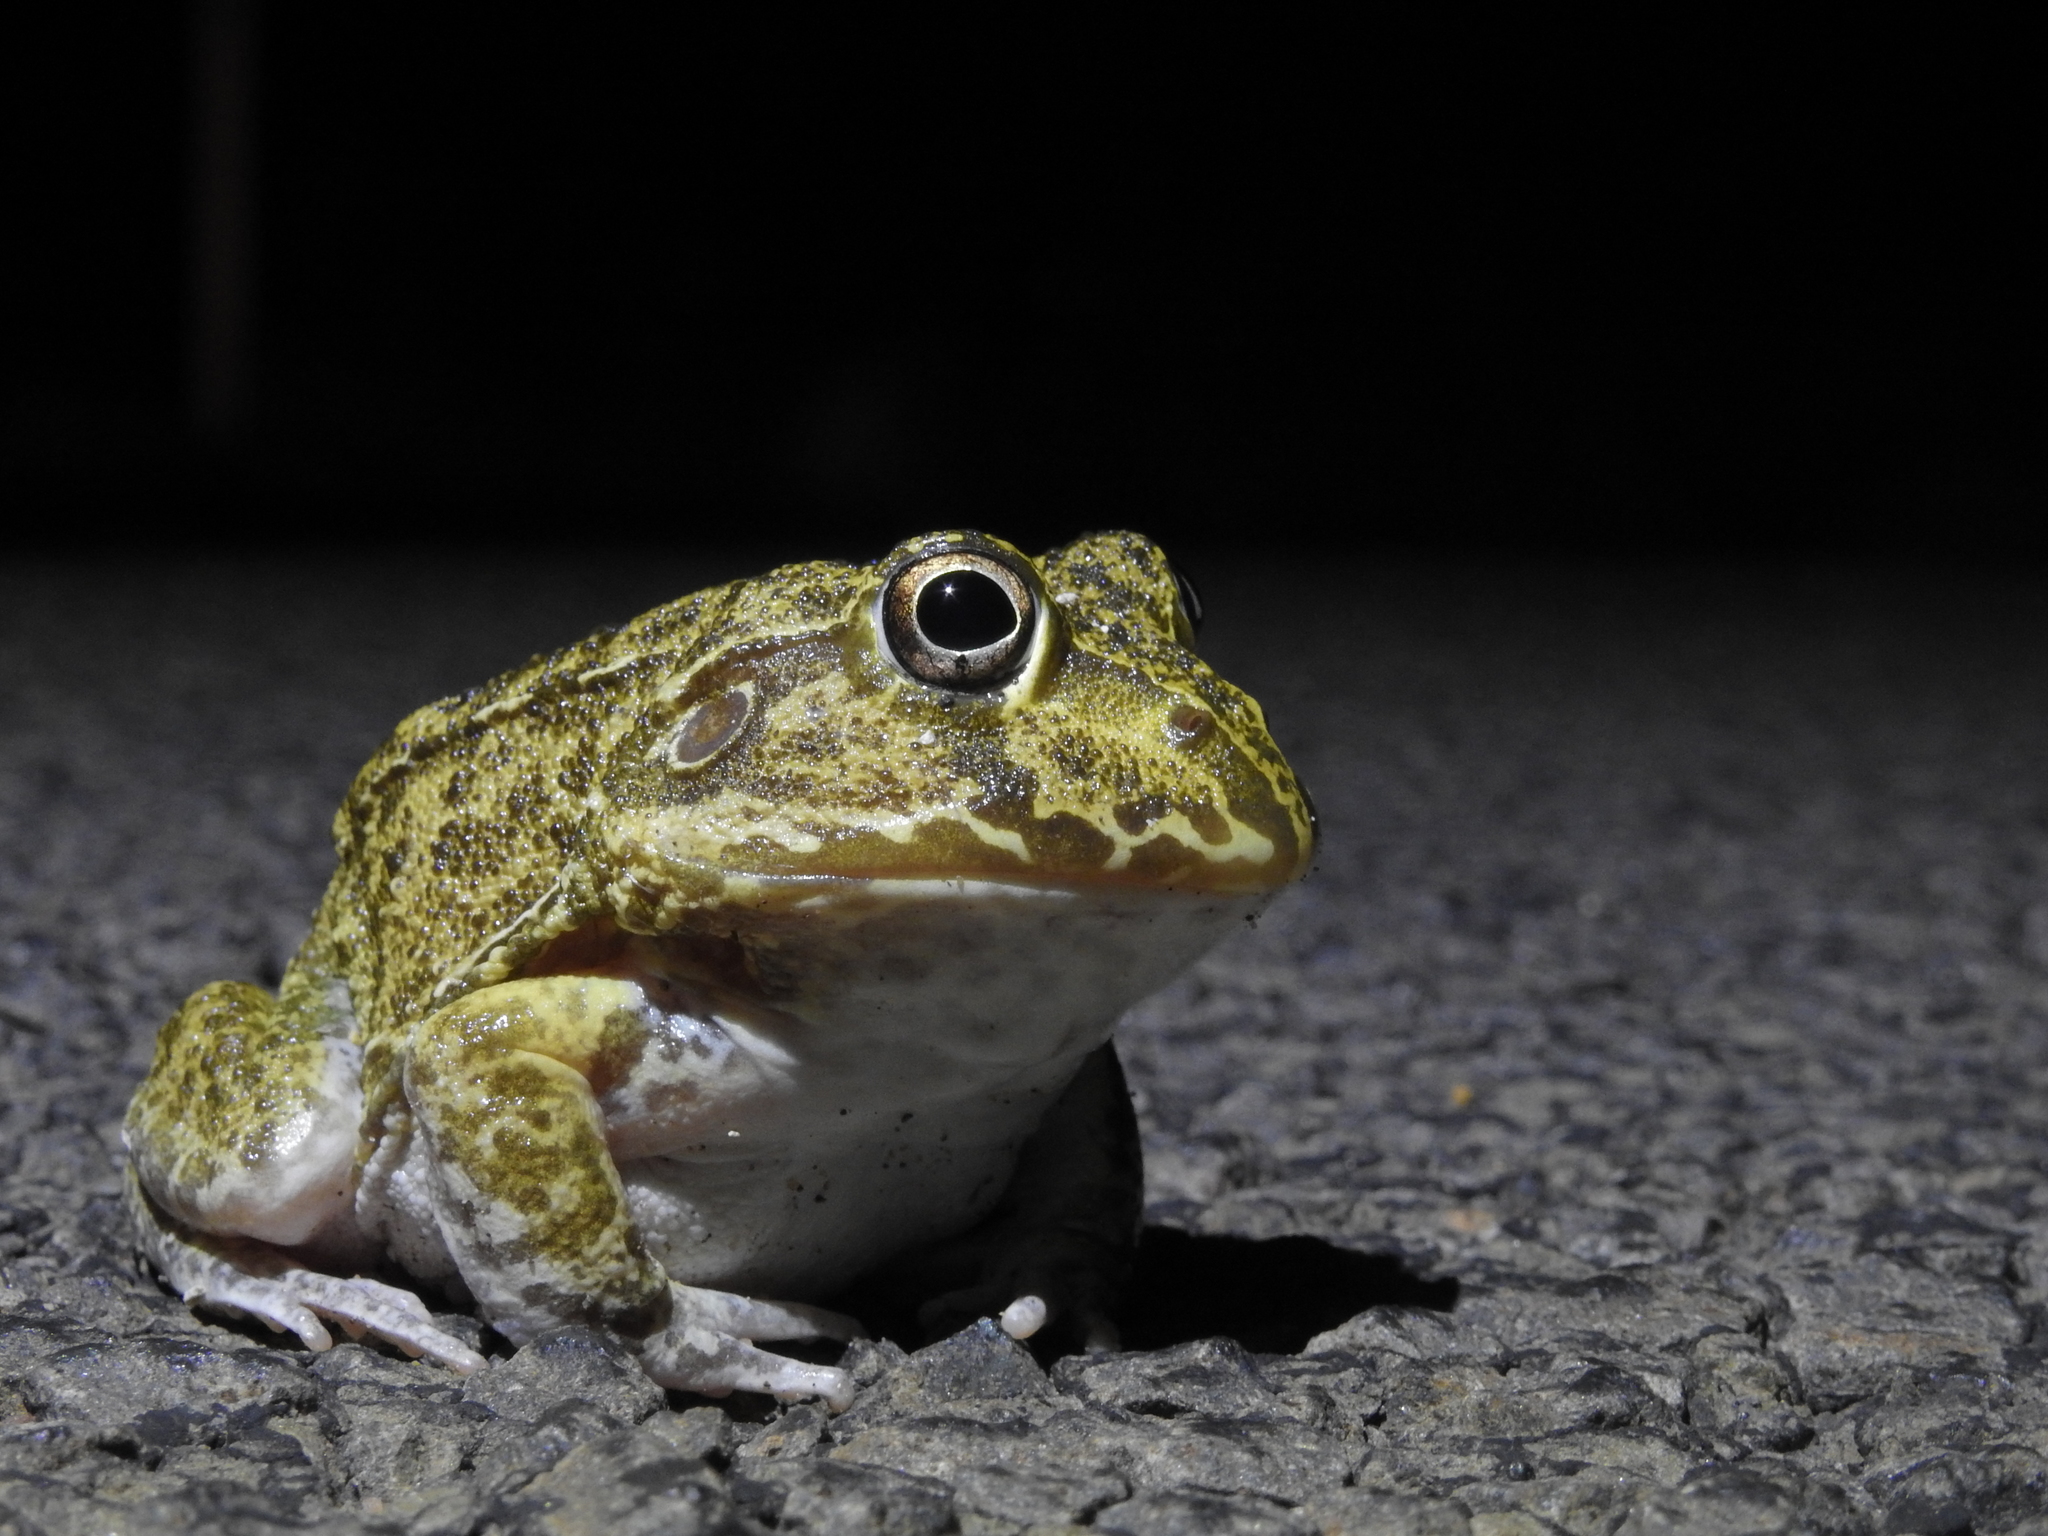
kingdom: Animalia
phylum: Chordata
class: Amphibia
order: Anura
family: Pelodryadidae
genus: Ranoidea
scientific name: Ranoidea novaehollandiae
